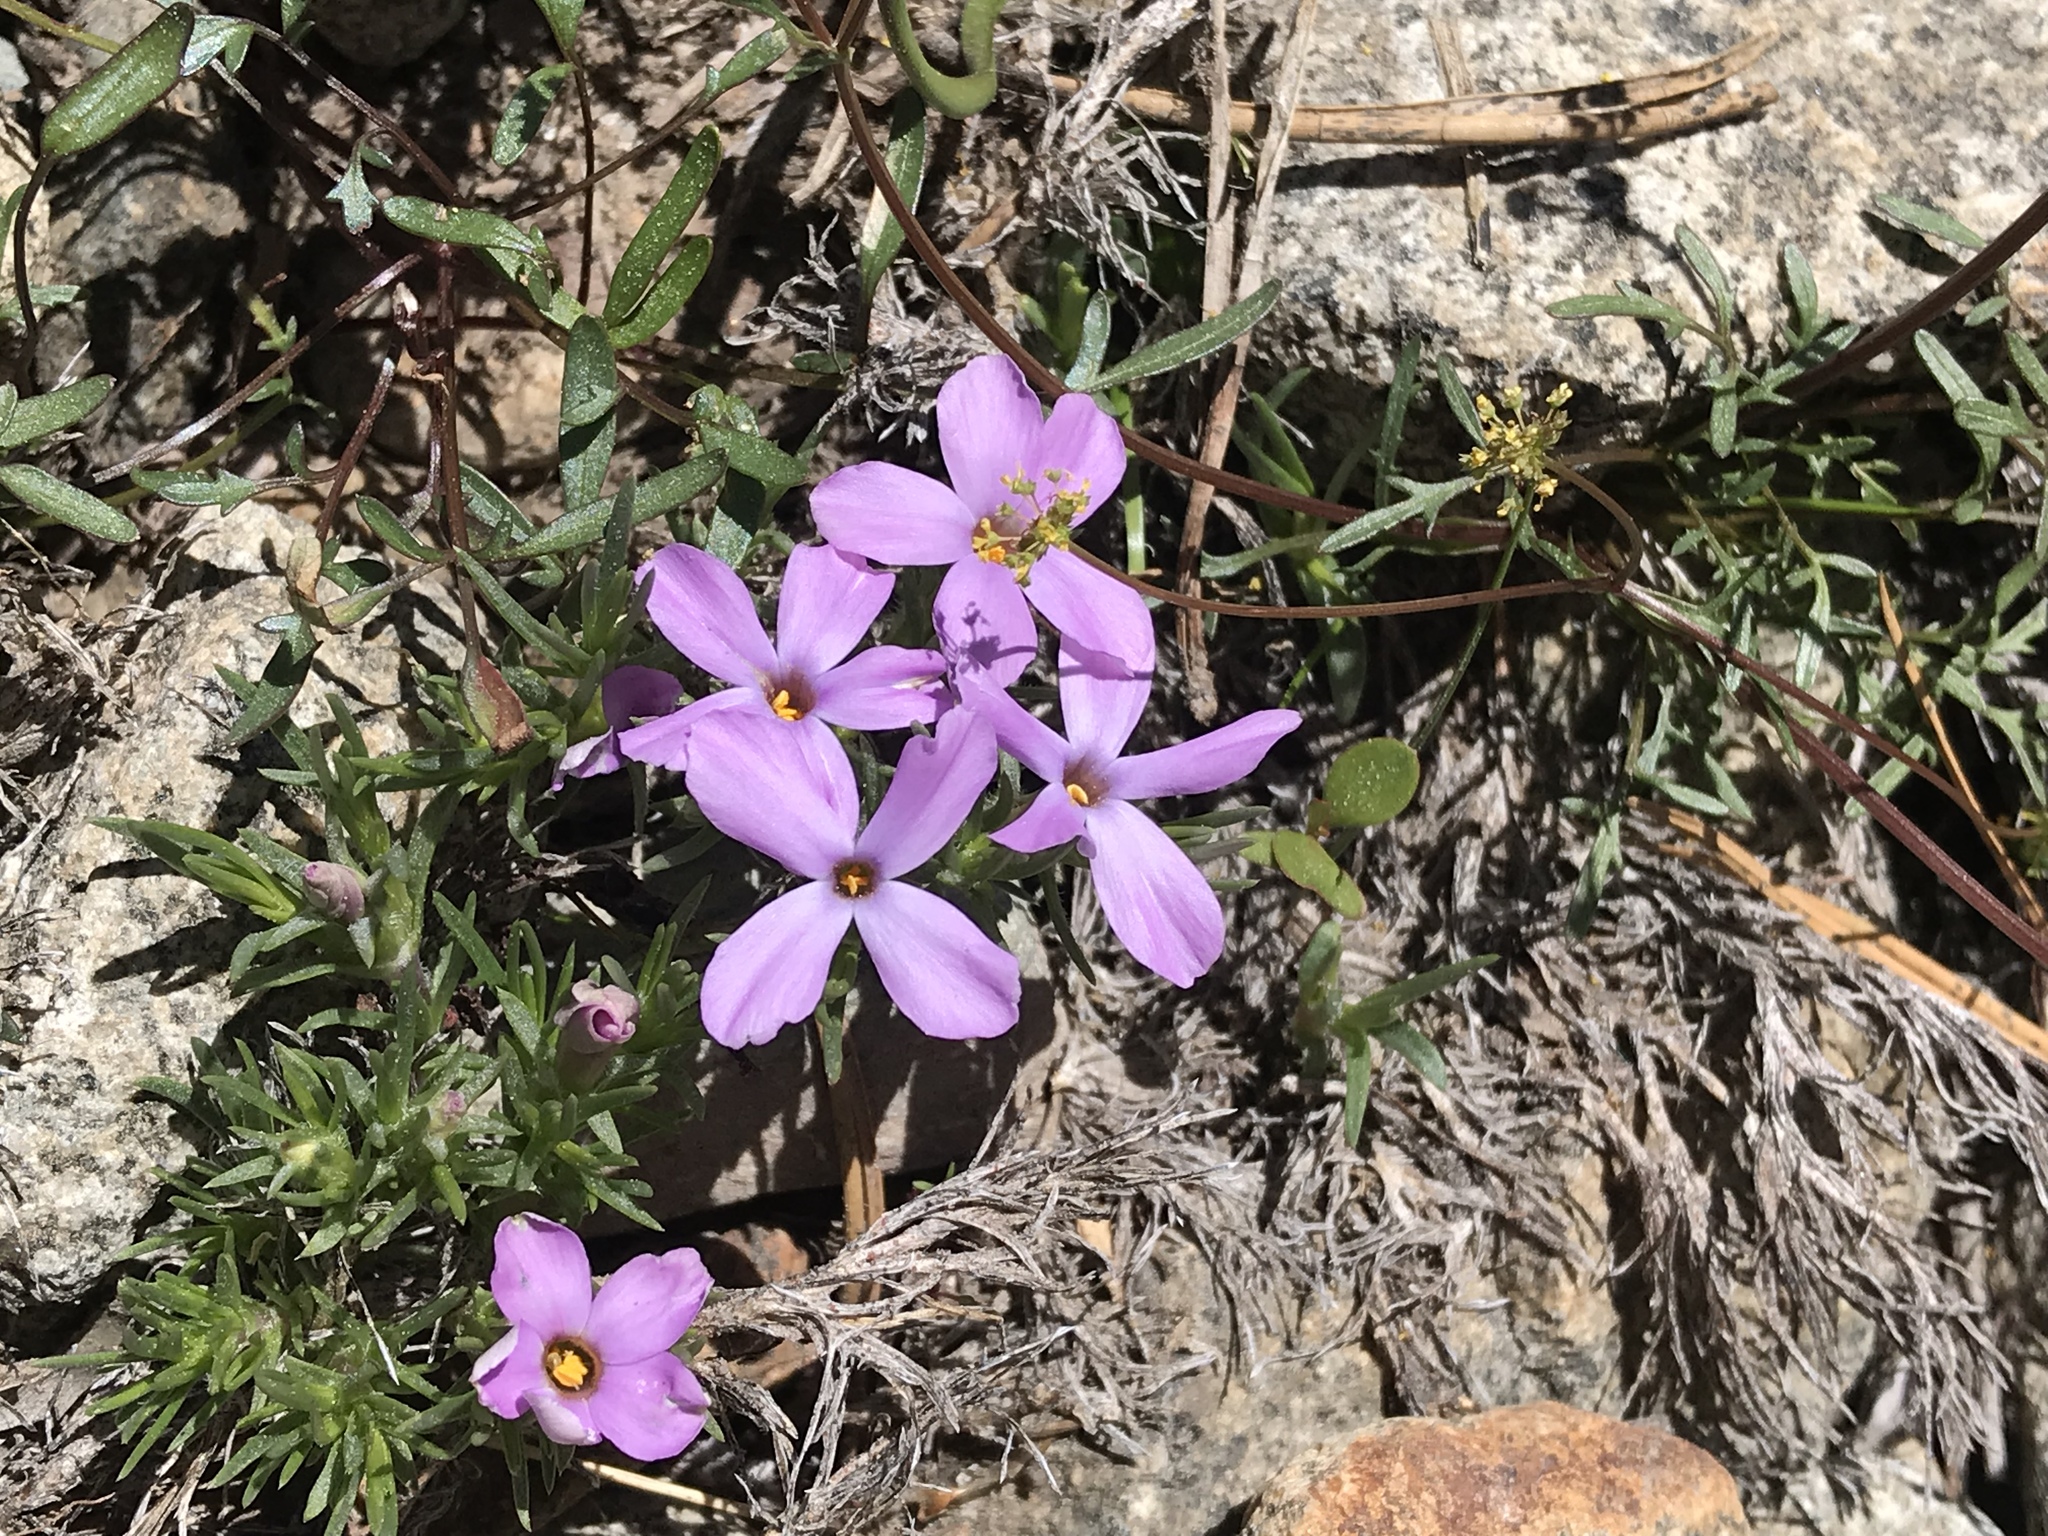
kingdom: Plantae
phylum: Tracheophyta
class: Magnoliopsida
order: Ericales
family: Polemoniaceae
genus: Phlox
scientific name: Phlox diffusa
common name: Mat phlox
